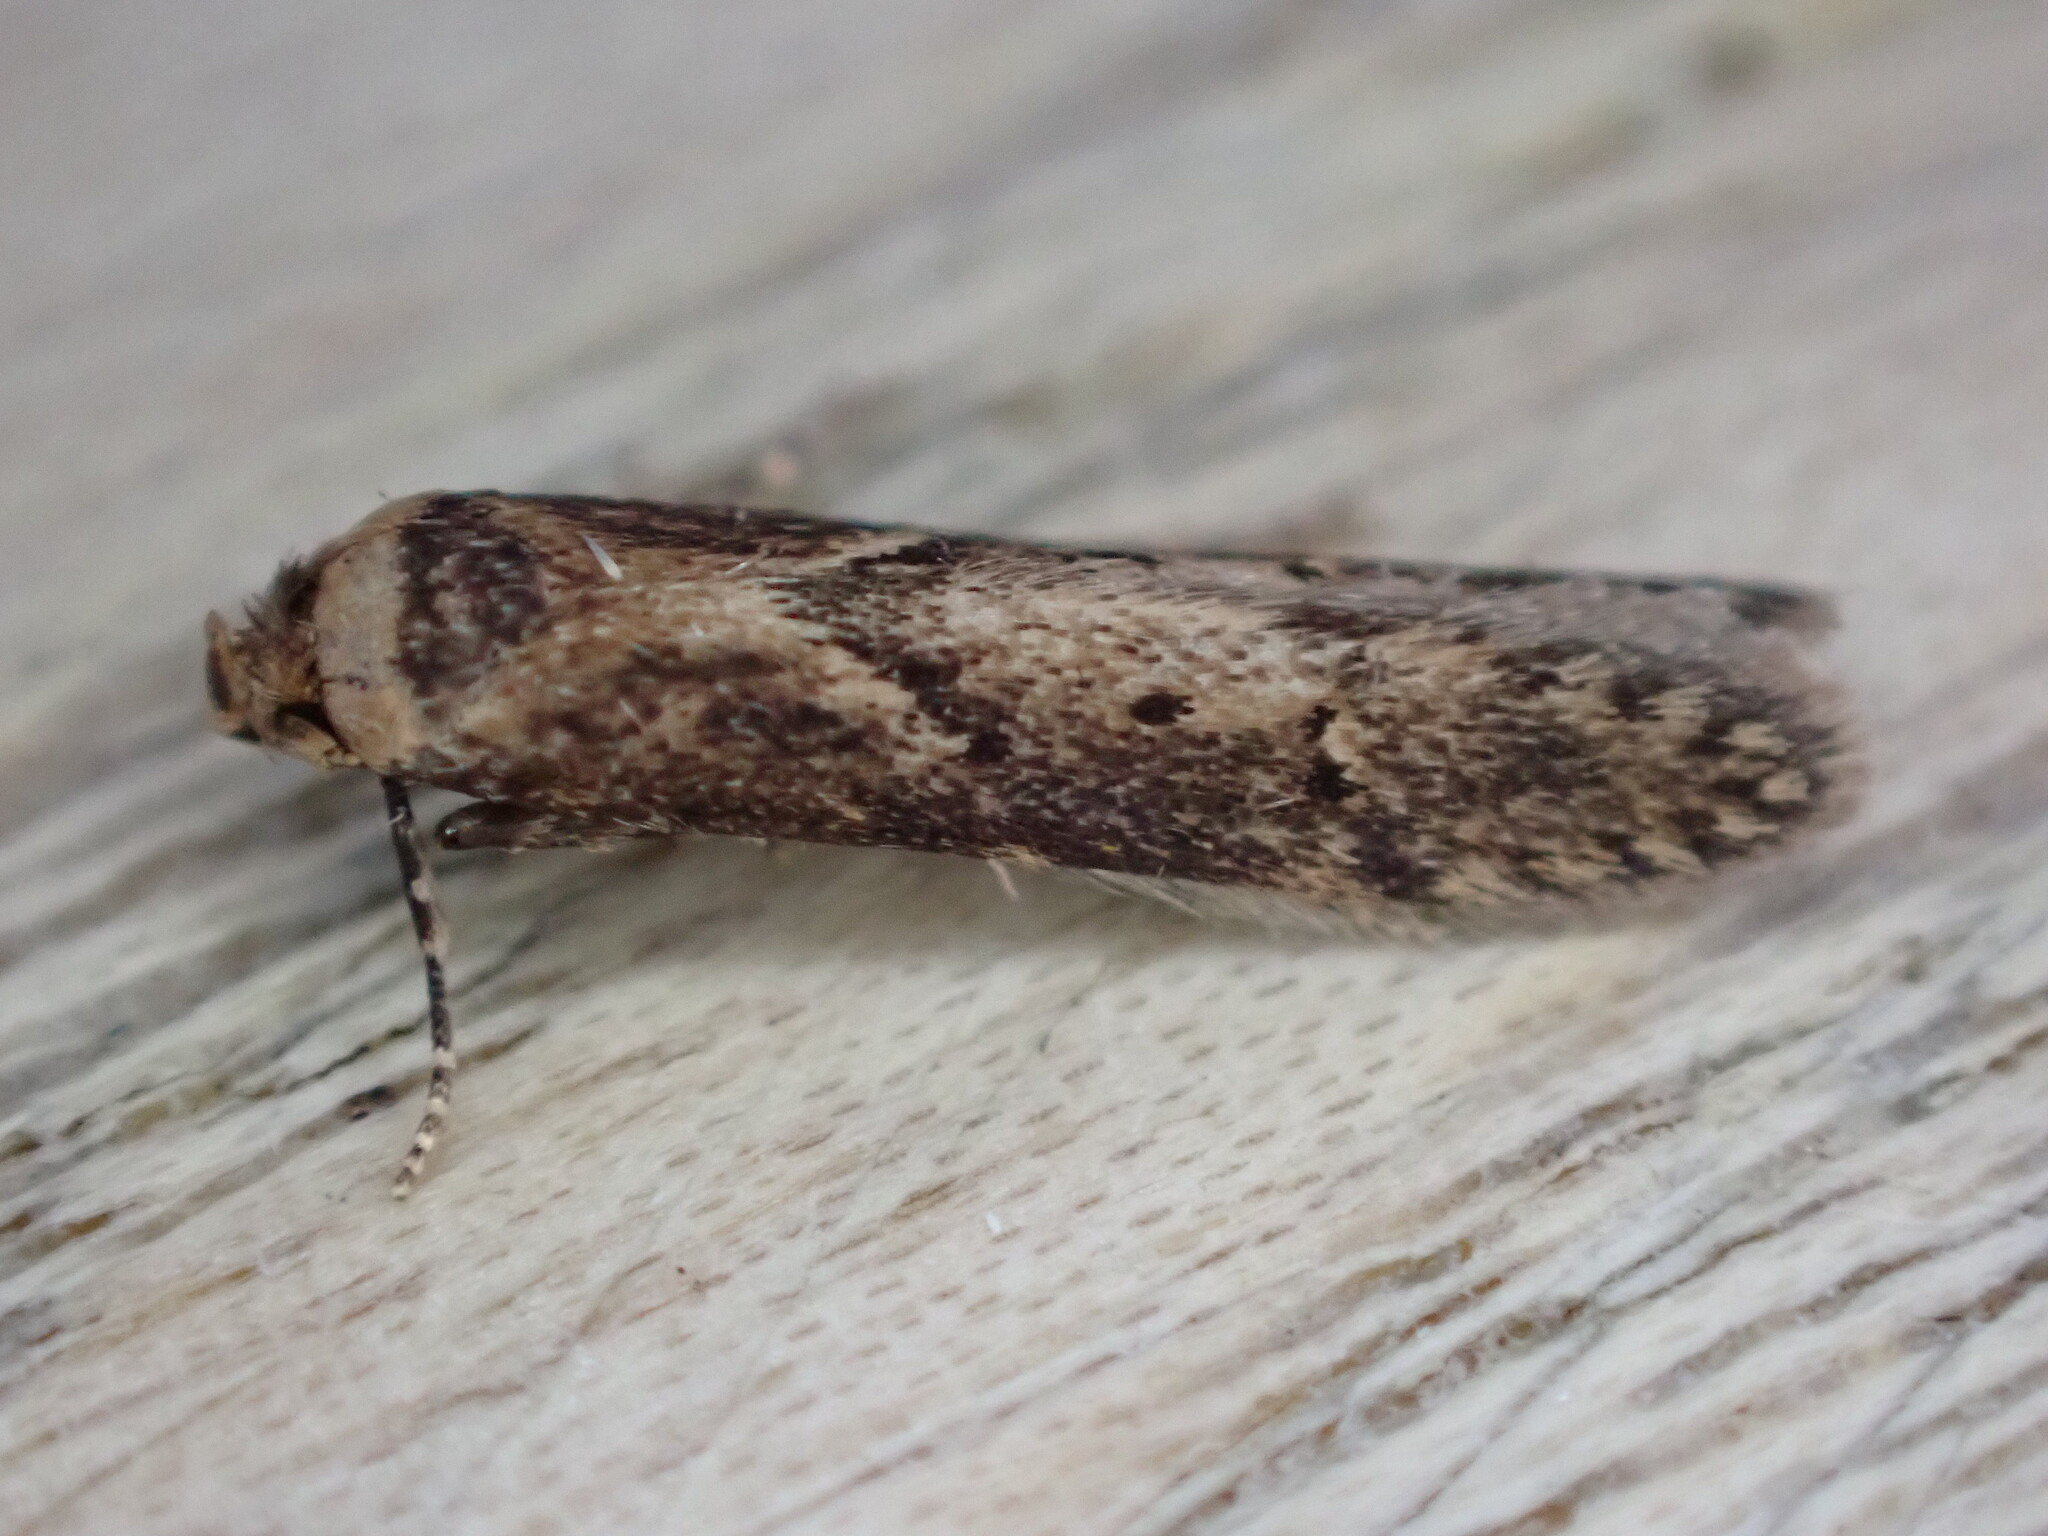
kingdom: Animalia
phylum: Arthropoda
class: Insecta
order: Lepidoptera
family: Blastobasidae
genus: Blastobasis
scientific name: Blastobasis adustella
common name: Dingy dowd
